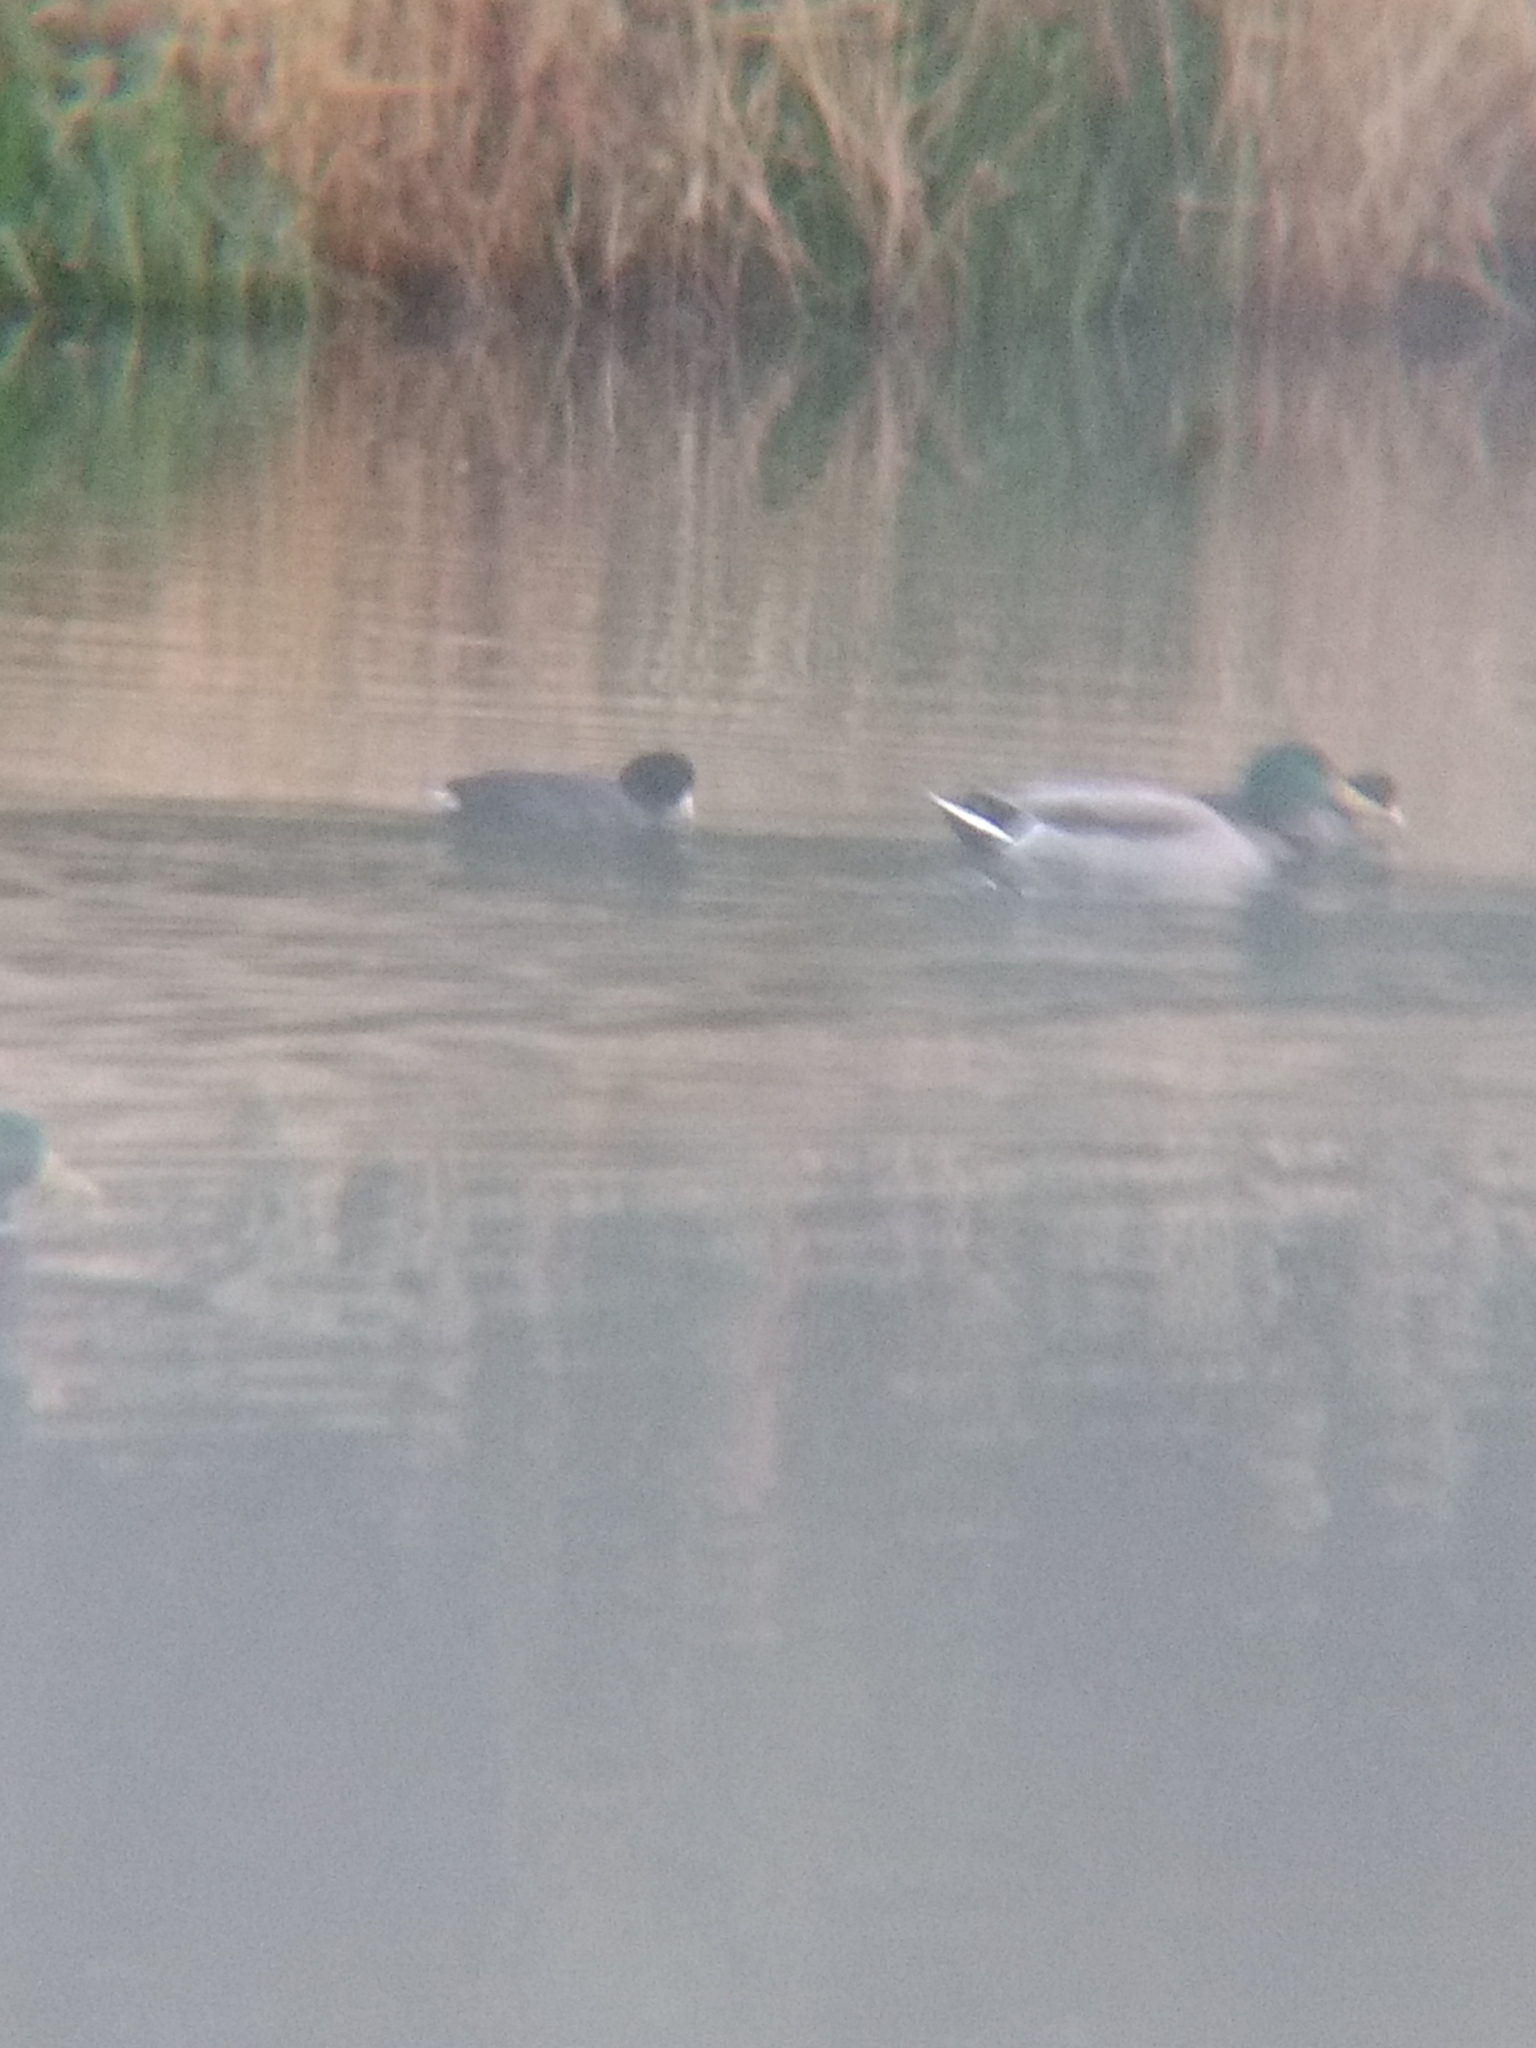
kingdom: Animalia
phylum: Chordata
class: Aves
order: Gruiformes
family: Rallidae
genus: Fulica
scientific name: Fulica americana
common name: American coot
